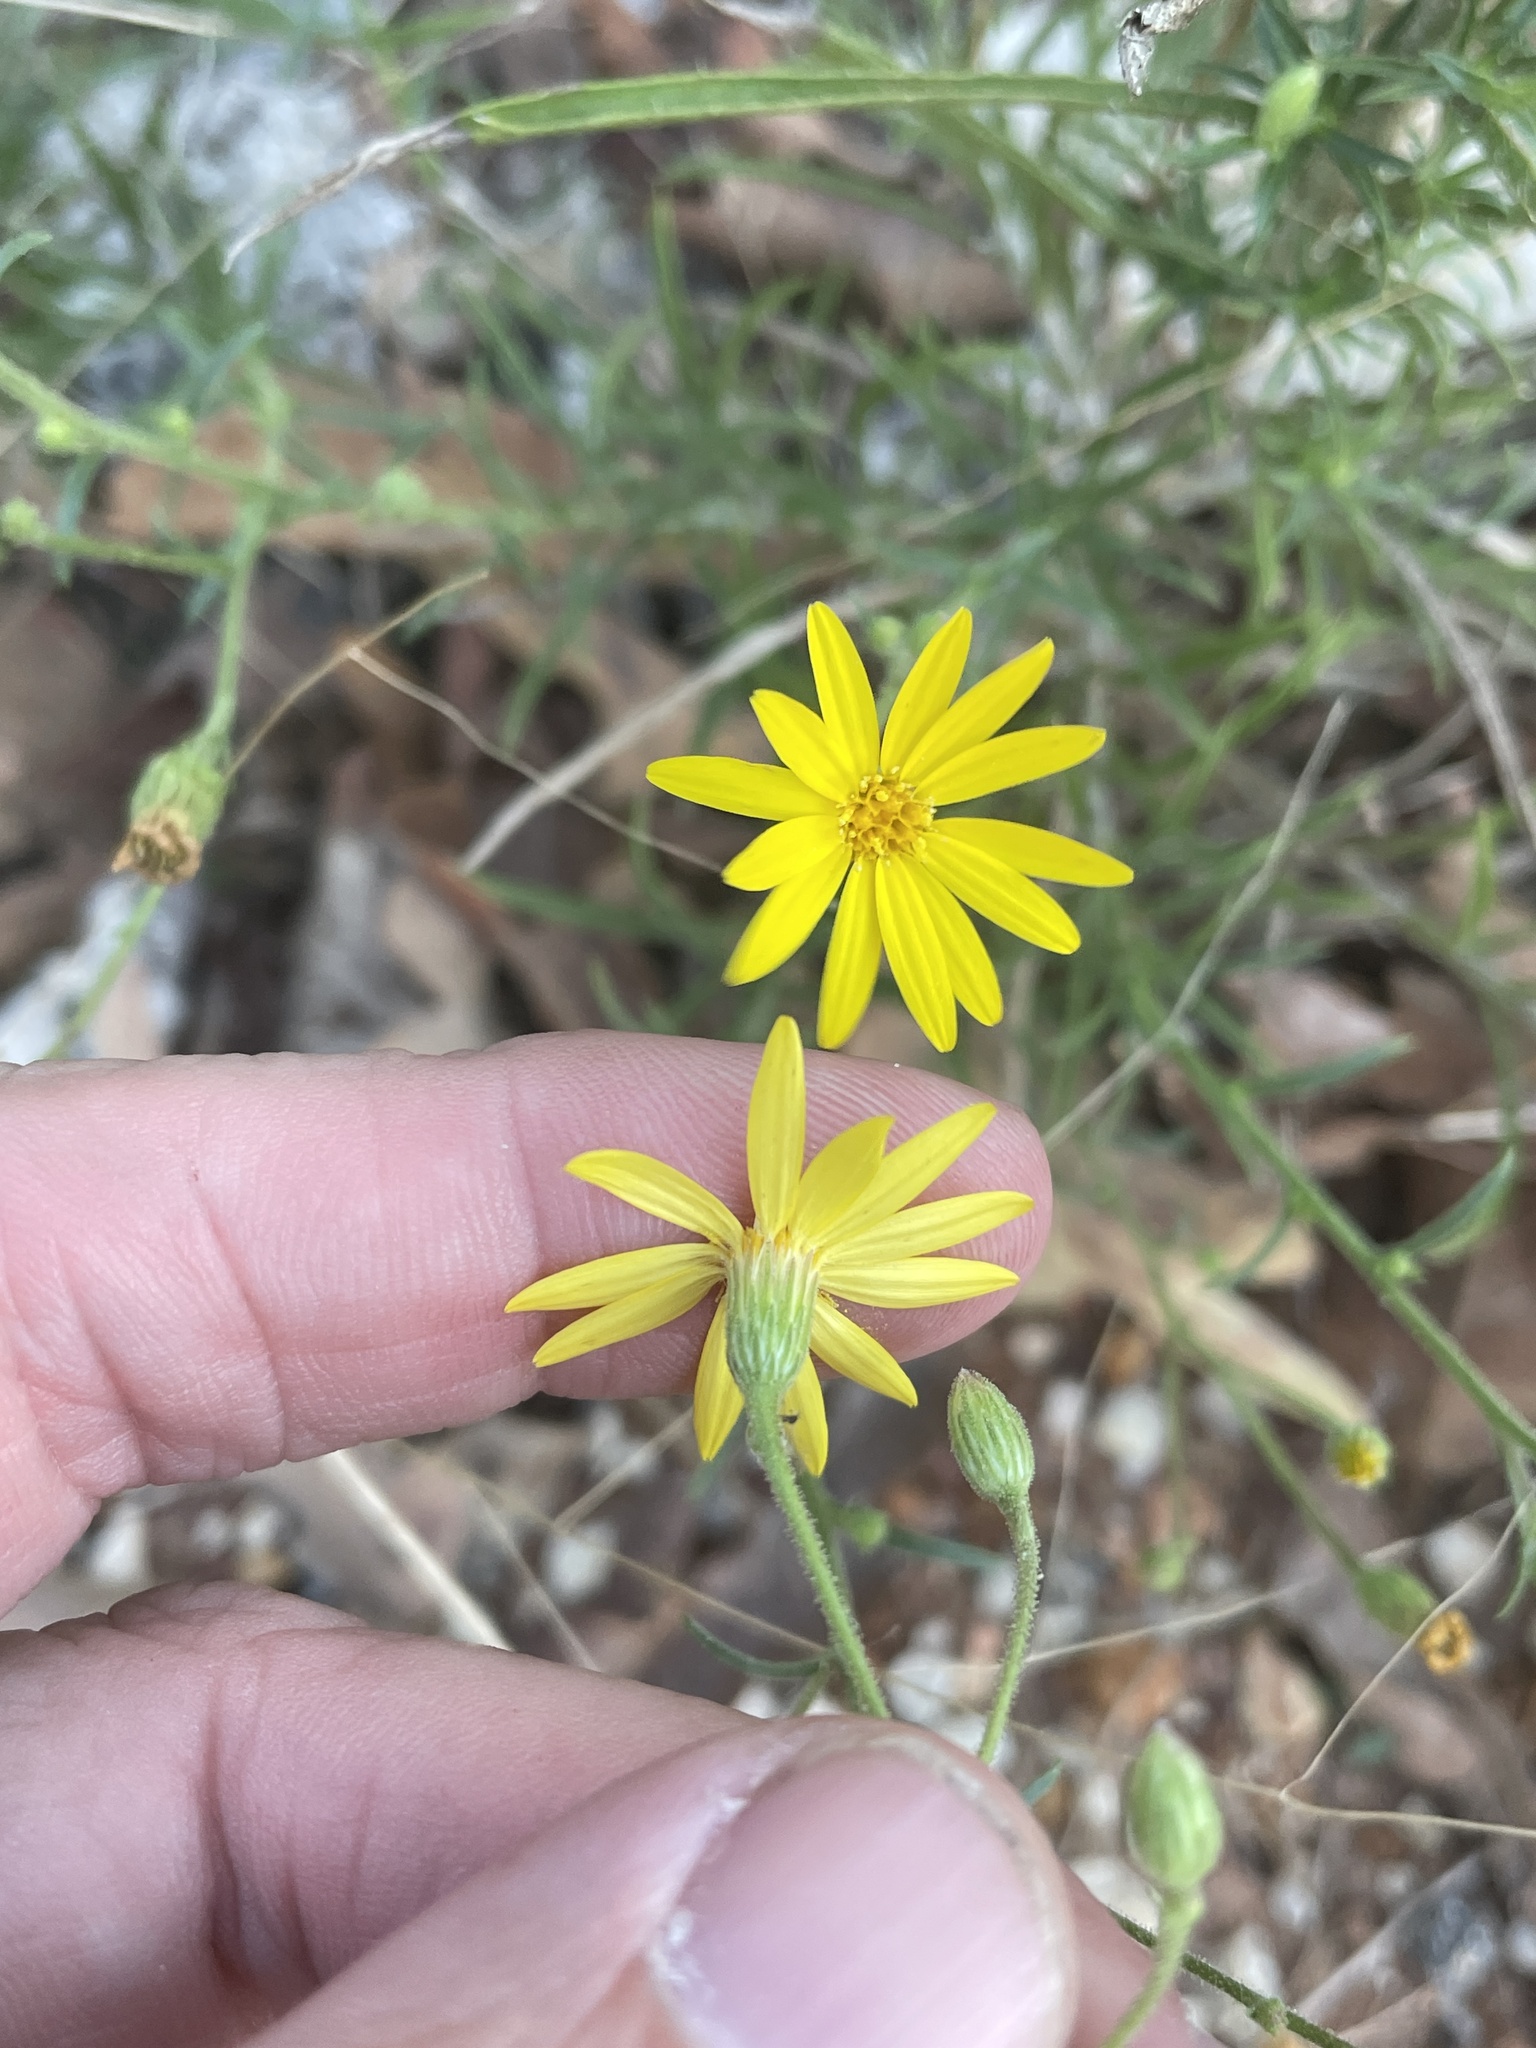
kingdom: Plantae
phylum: Tracheophyta
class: Magnoliopsida
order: Asterales
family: Asteraceae
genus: Croptilon
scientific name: Croptilon divaricatum
